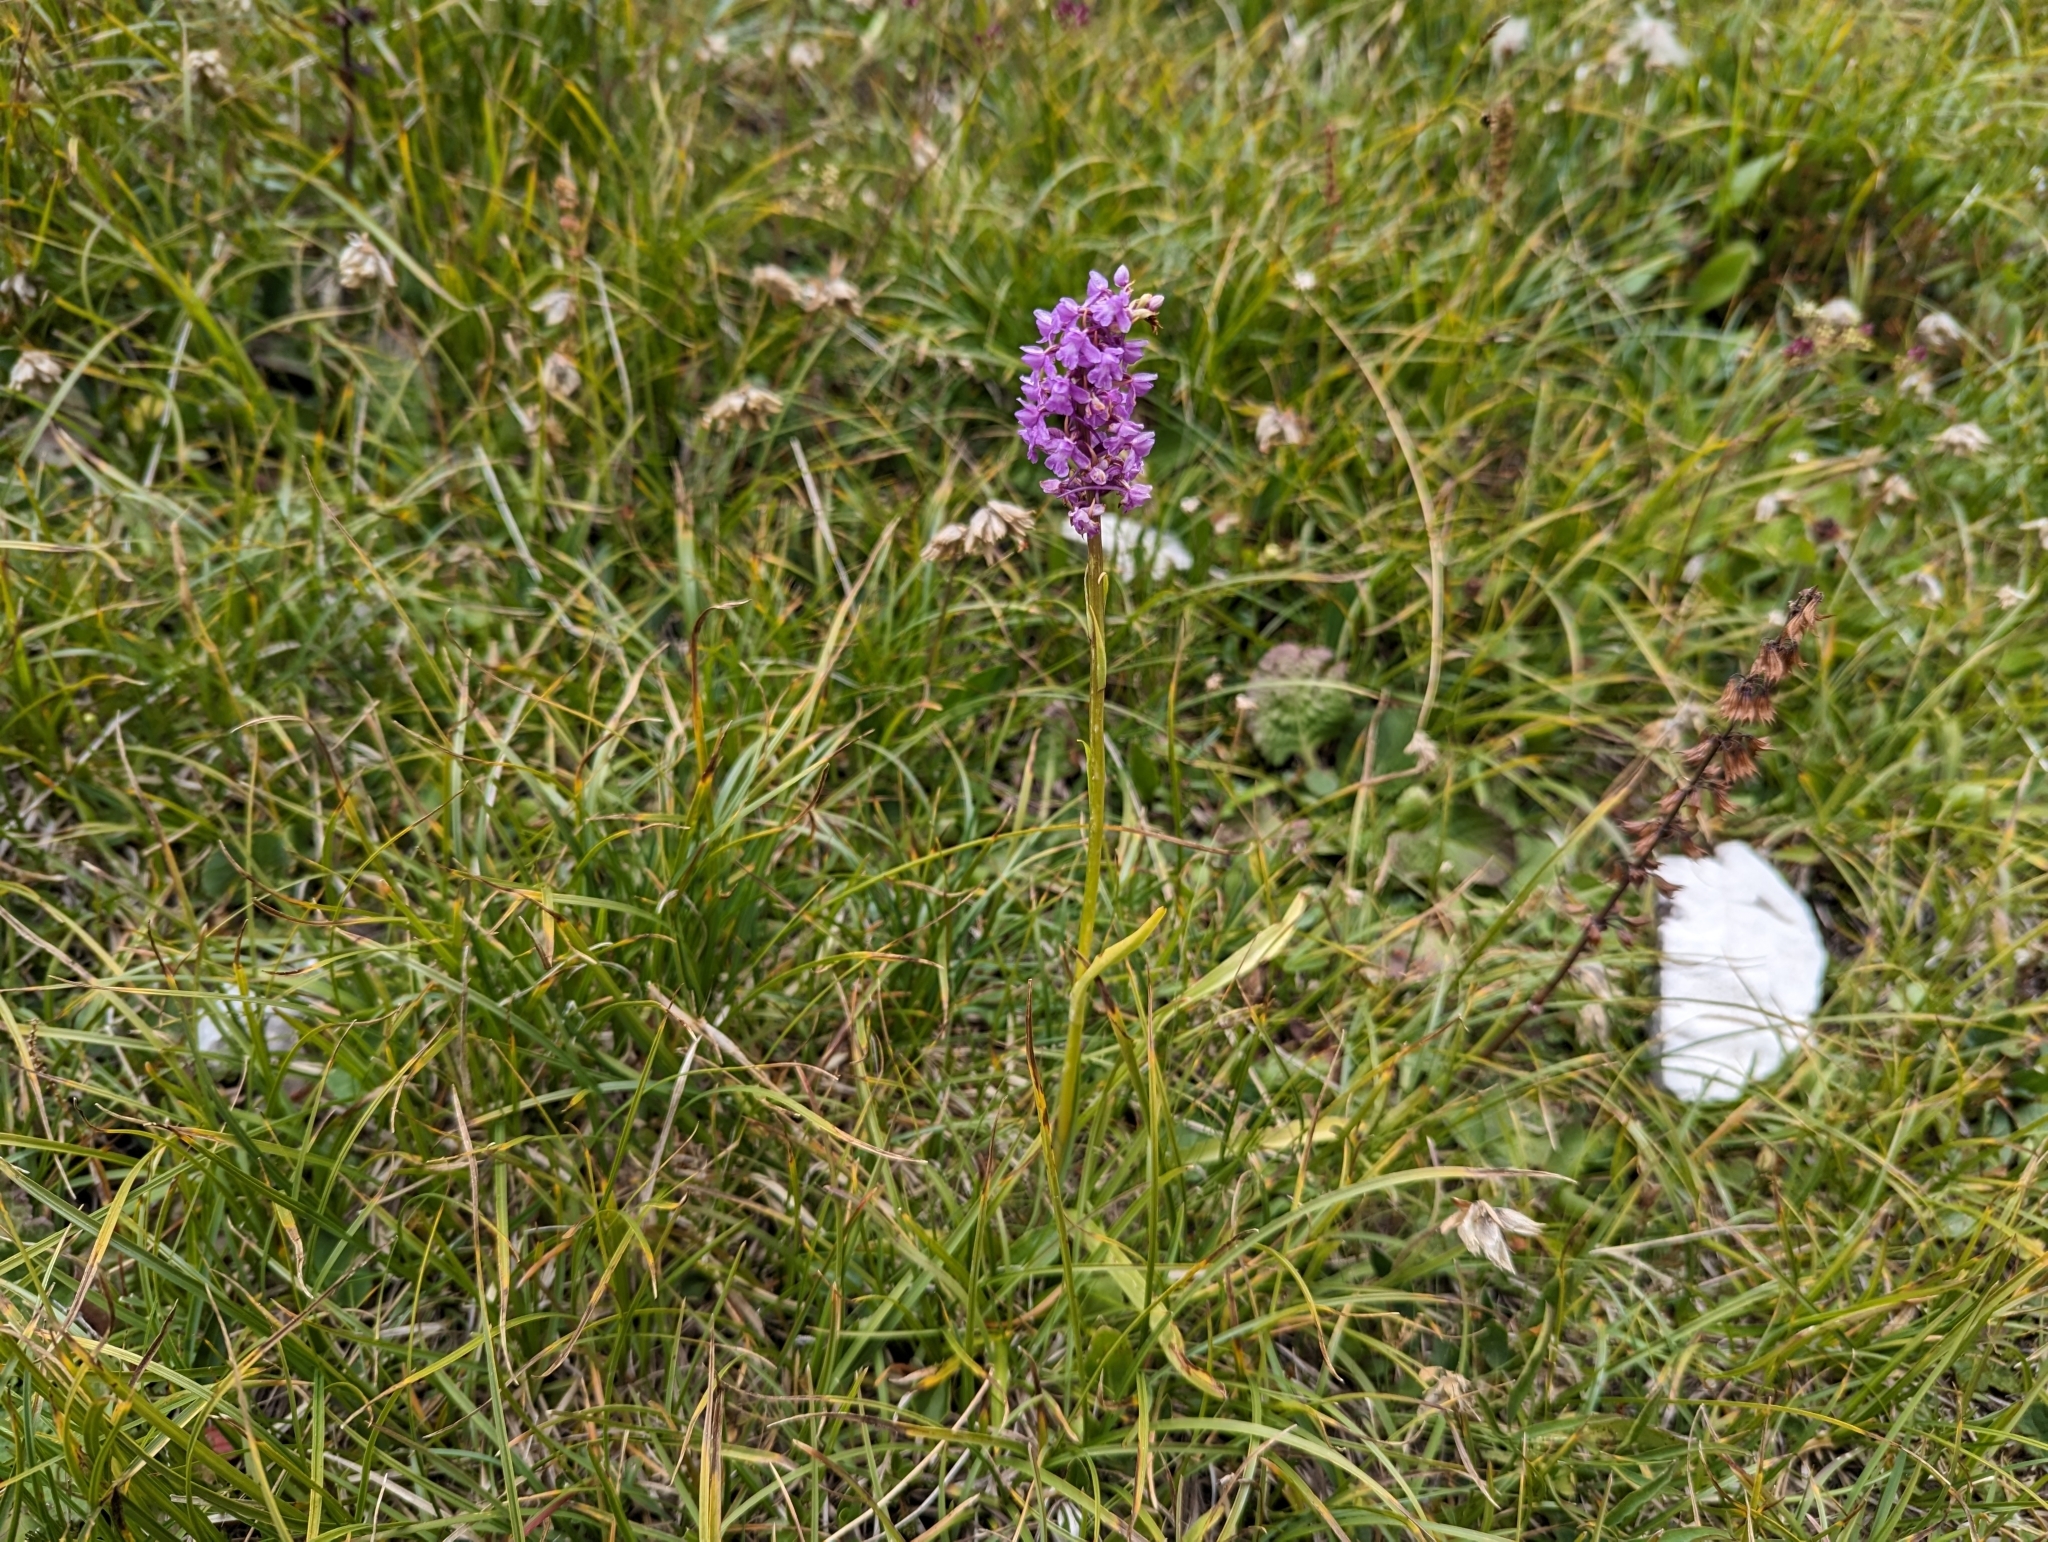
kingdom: Plantae
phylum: Tracheophyta
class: Liliopsida
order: Asparagales
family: Orchidaceae
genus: Gymnadenia
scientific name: Gymnadenia conopsea
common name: Fragrant orchid
